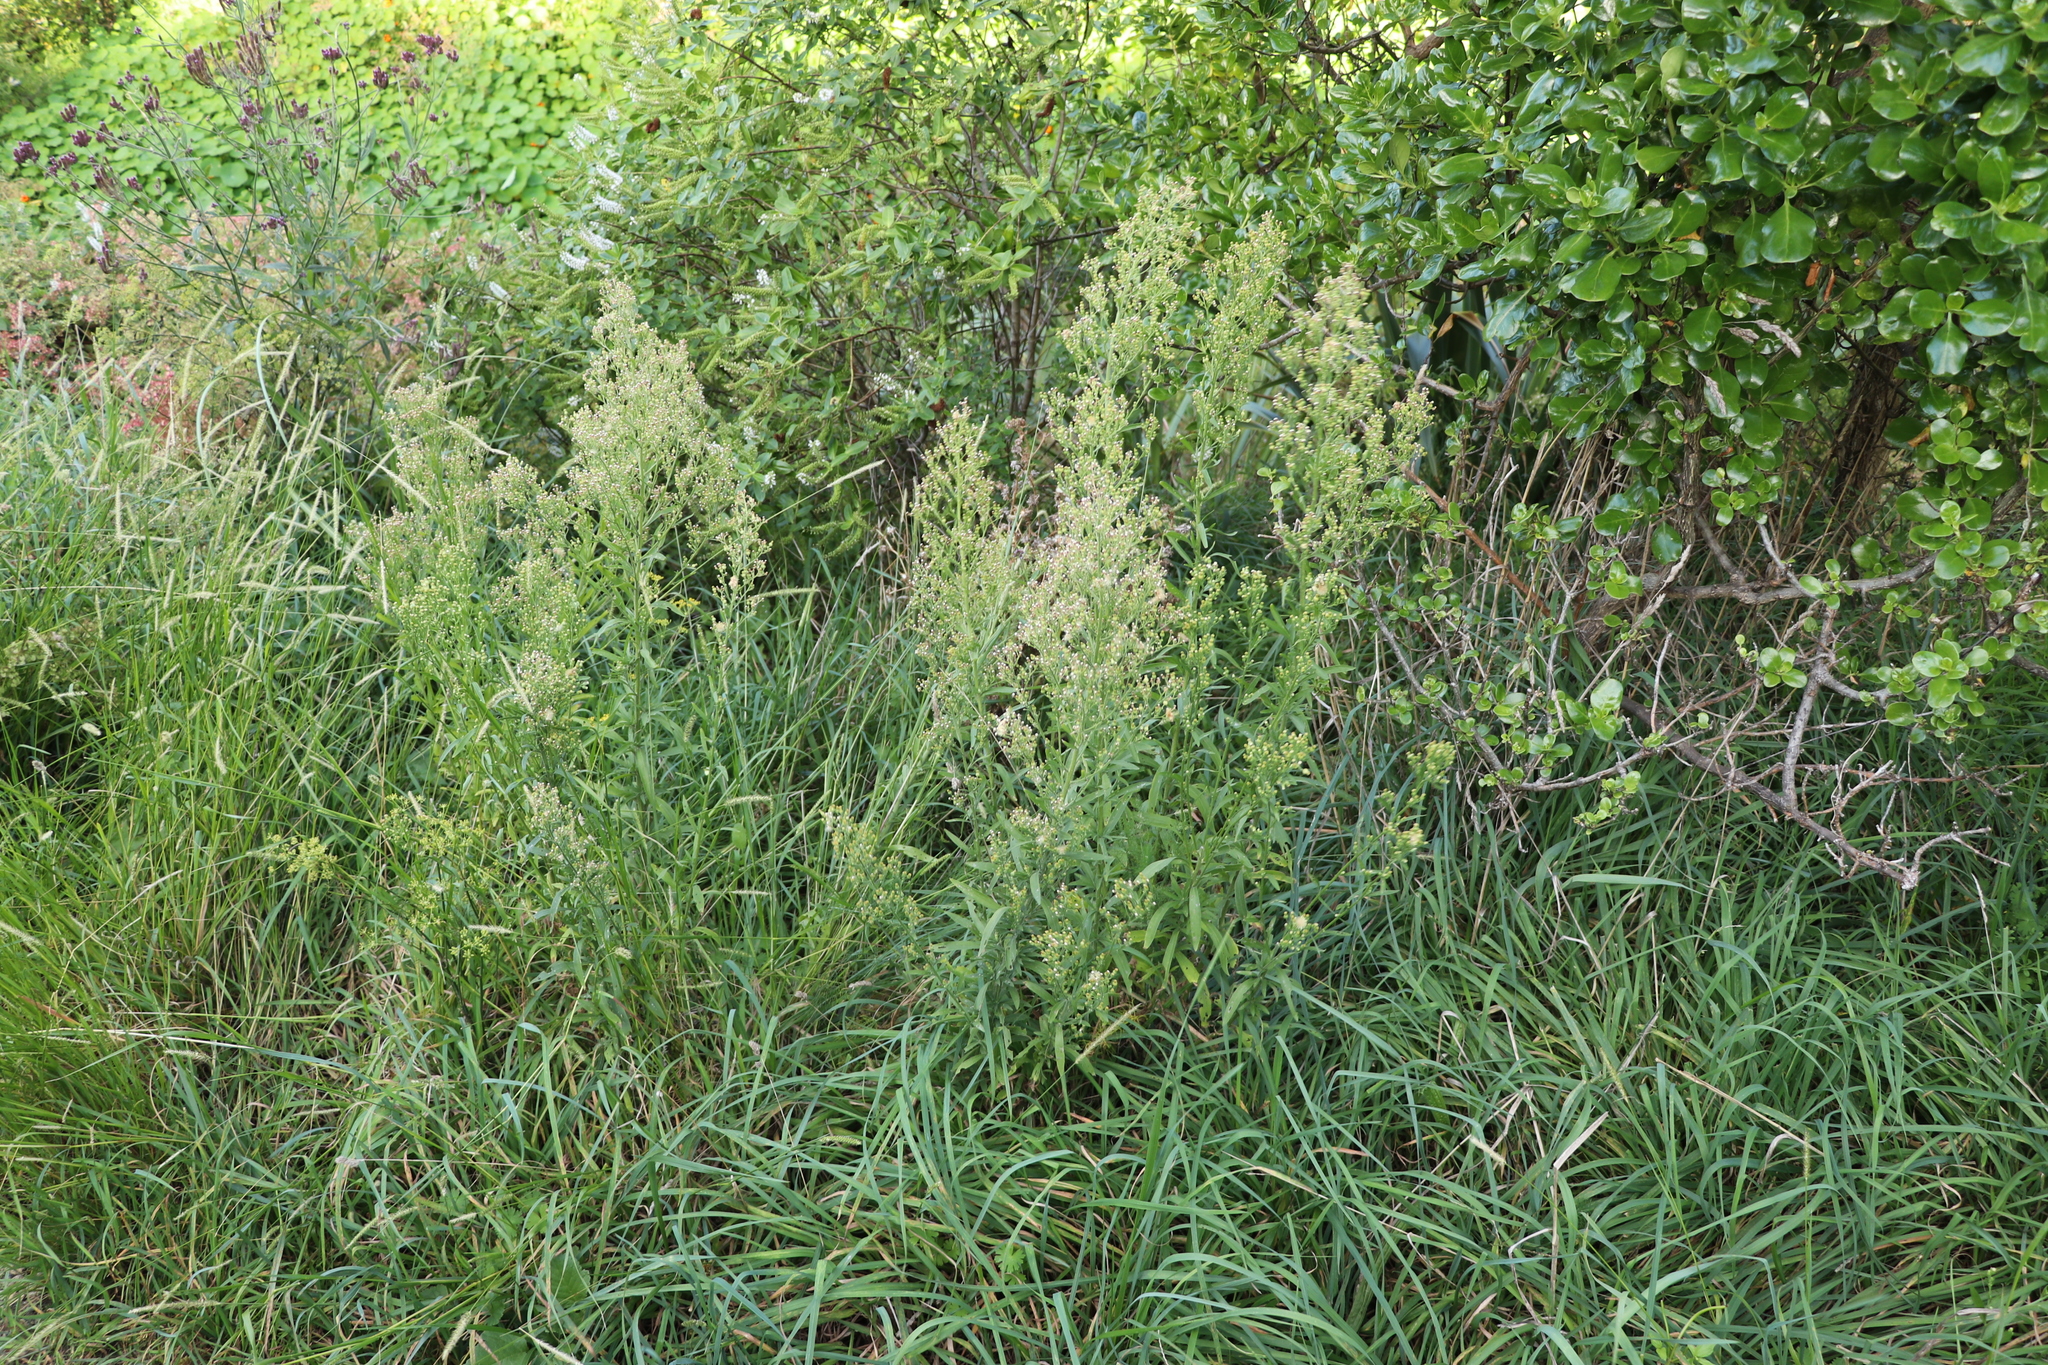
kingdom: Plantae
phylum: Tracheophyta
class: Magnoliopsida
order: Asterales
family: Asteraceae
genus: Erigeron
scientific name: Erigeron sumatrensis
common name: Daisy
